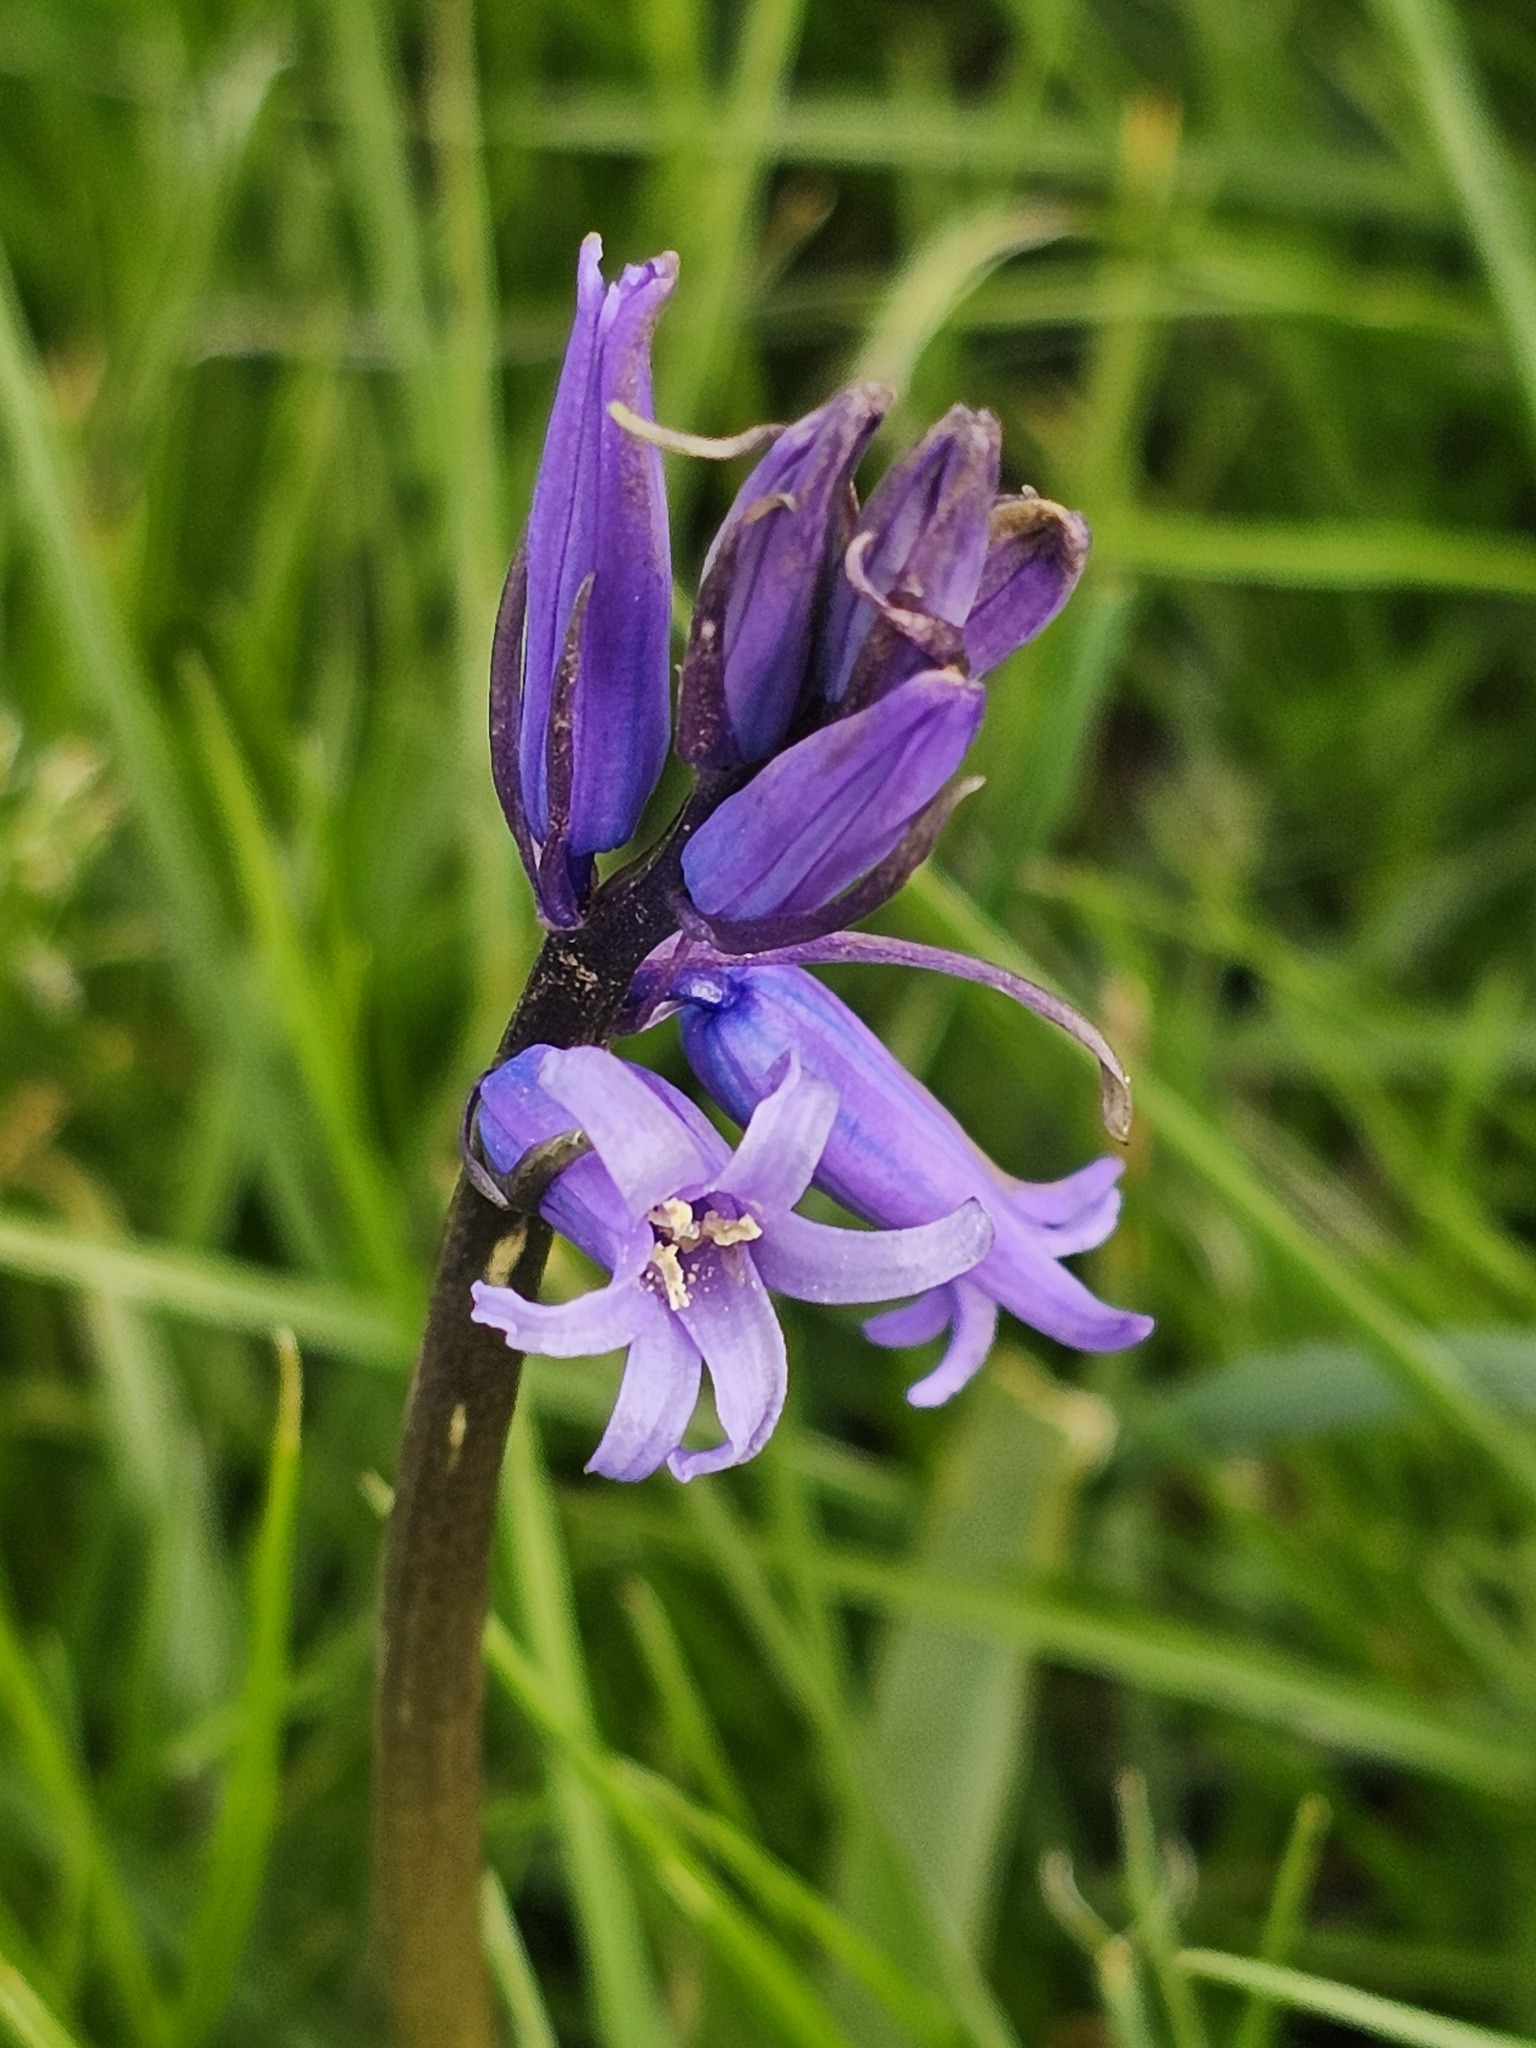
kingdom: Plantae
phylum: Tracheophyta
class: Liliopsida
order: Asparagales
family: Asparagaceae
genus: Hyacinthoides
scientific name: Hyacinthoides non-scripta
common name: Bluebell
